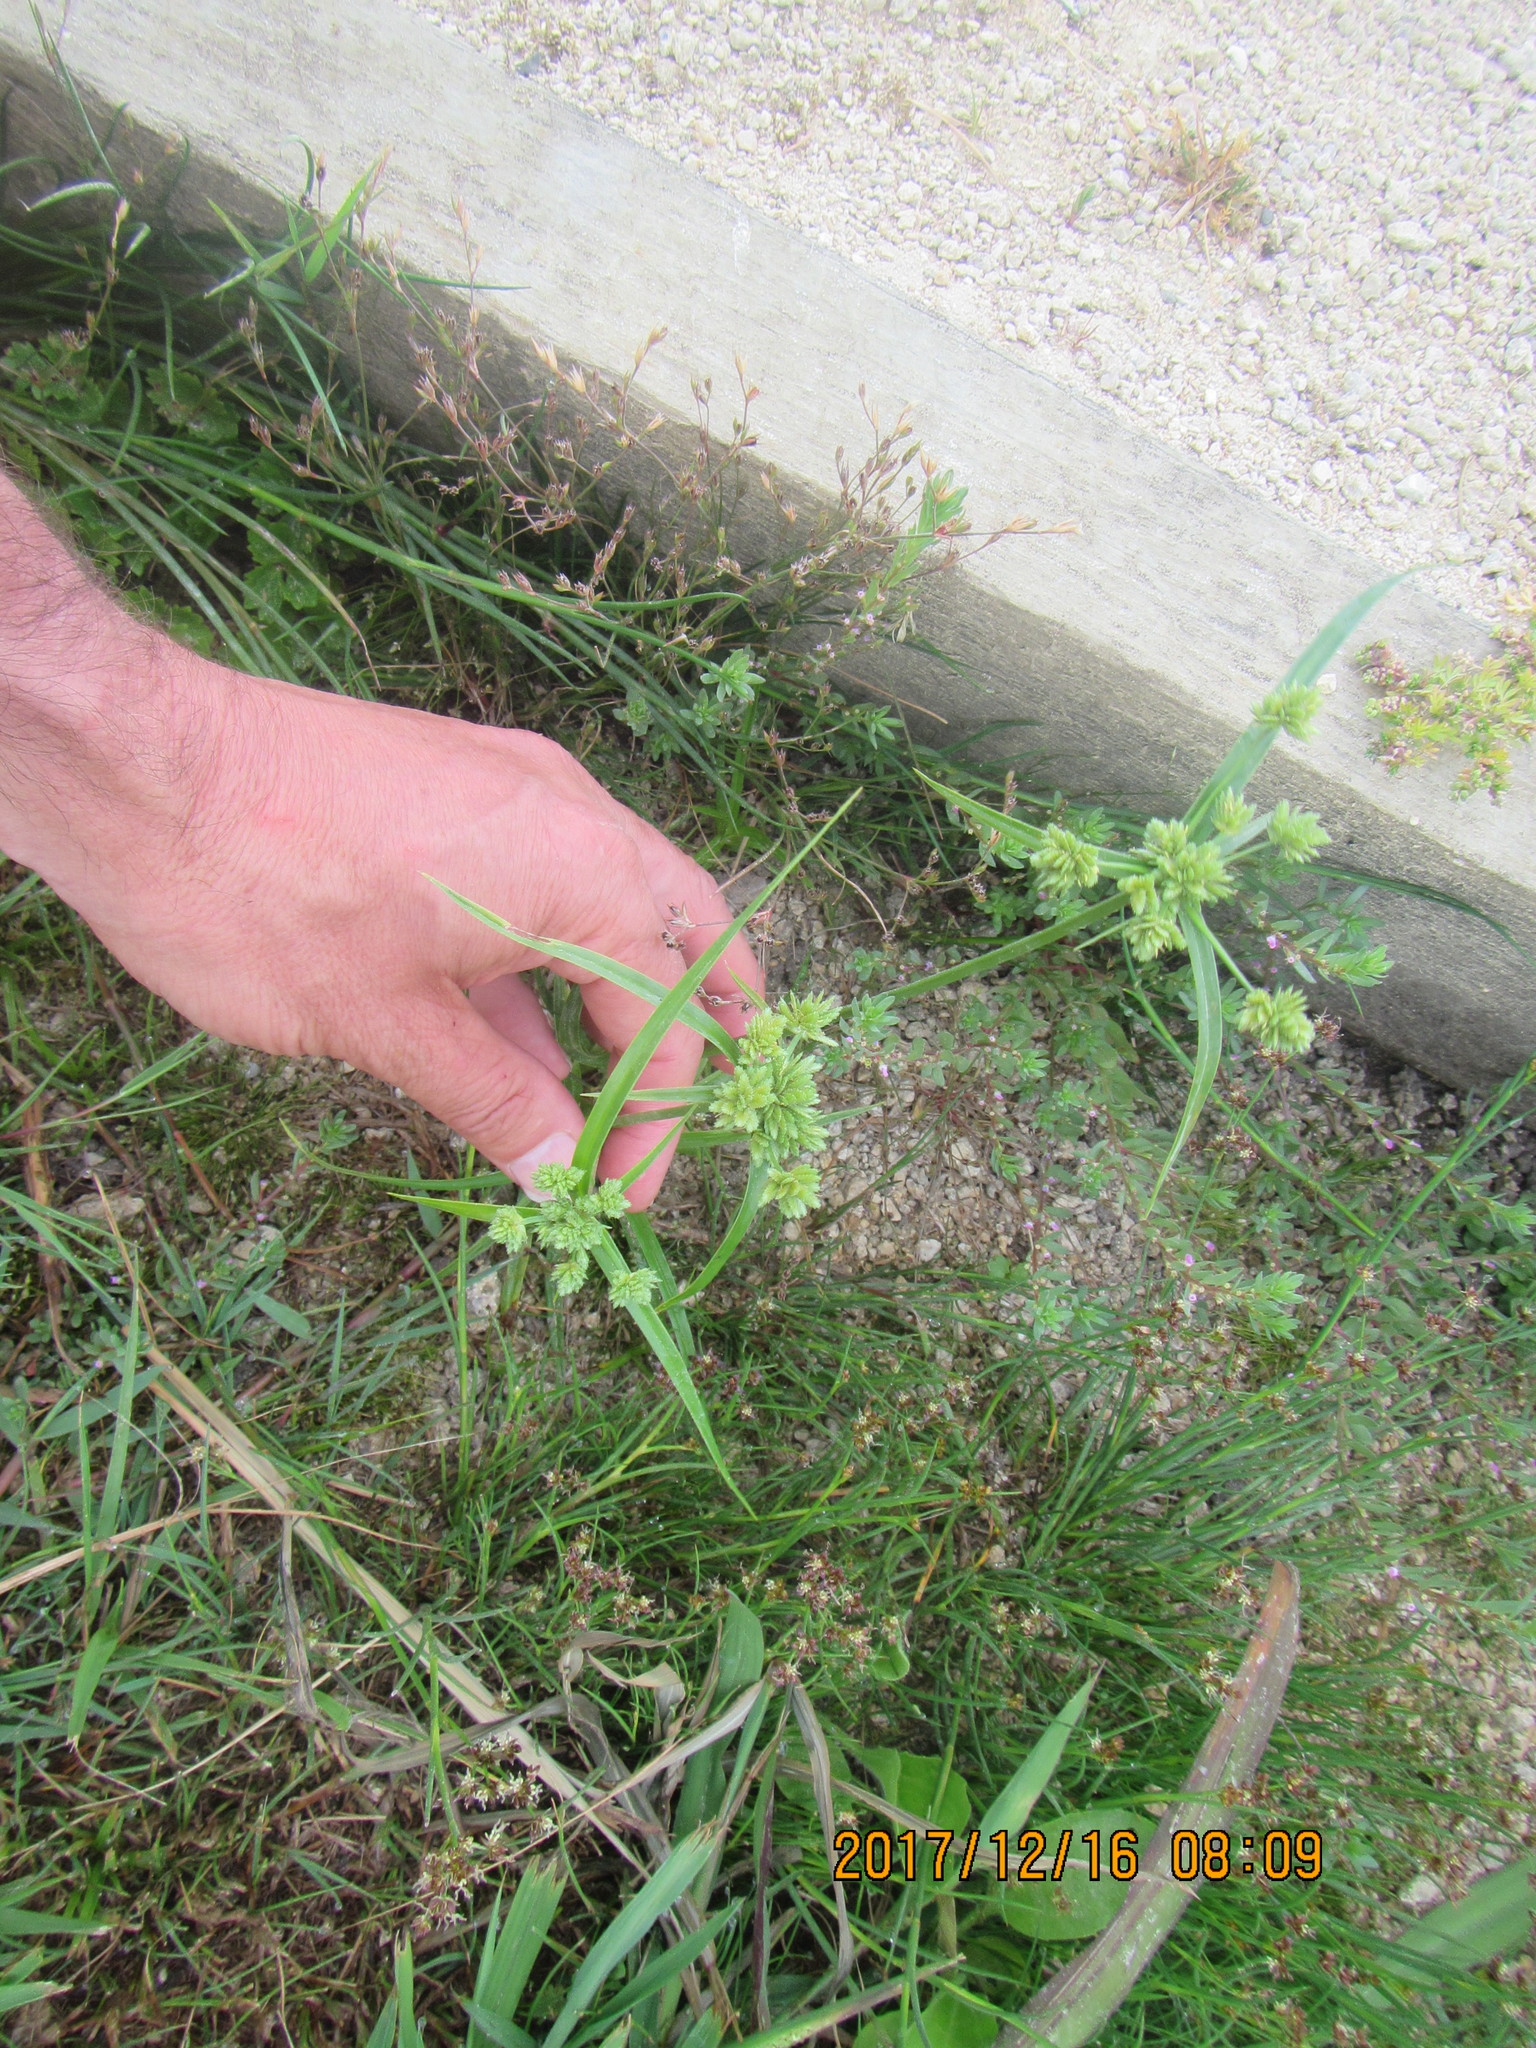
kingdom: Plantae
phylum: Tracheophyta
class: Liliopsida
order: Poales
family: Cyperaceae
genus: Cyperus
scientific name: Cyperus eragrostis
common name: Tall flatsedge
